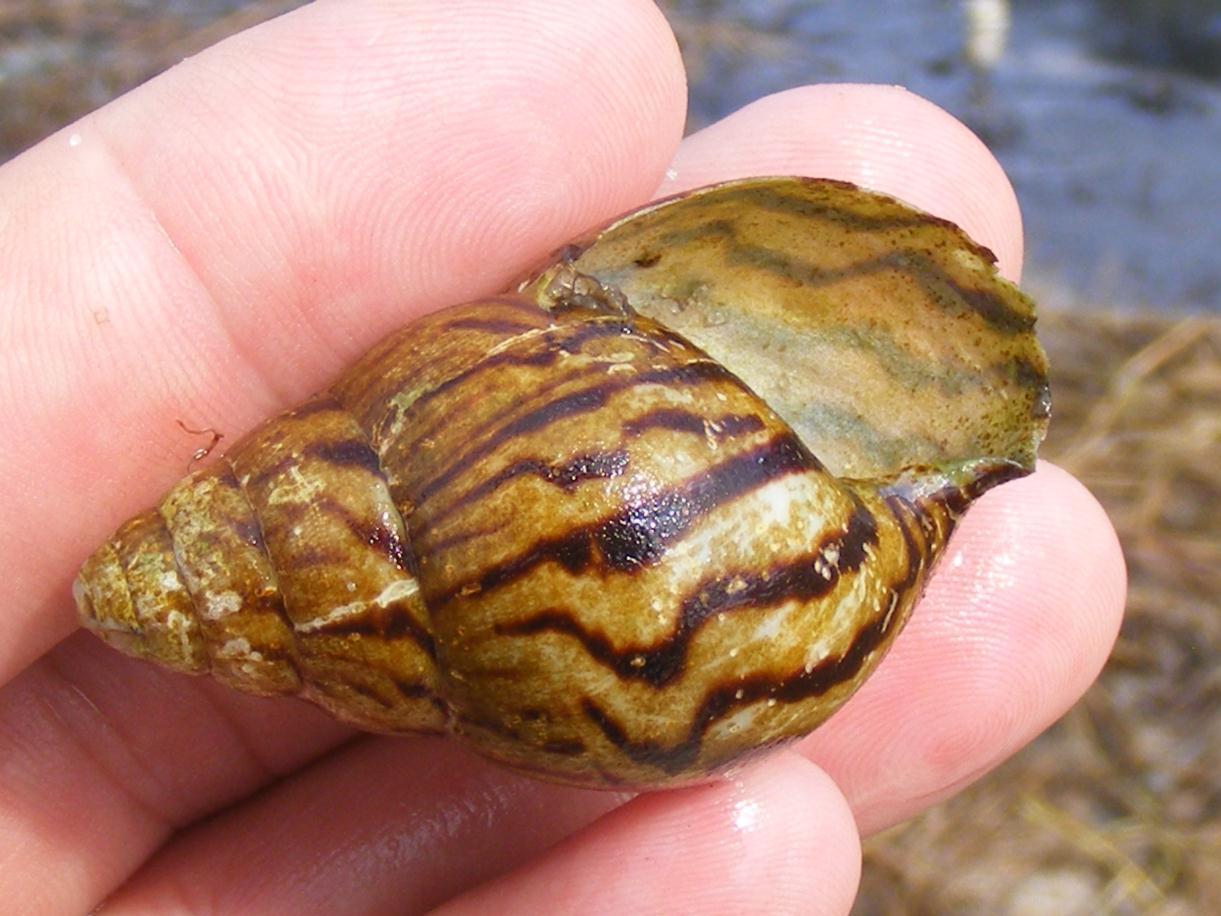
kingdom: Animalia
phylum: Mollusca
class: Gastropoda
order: Stylommatophora
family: Achatinidae
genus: Cochlitoma
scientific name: Cochlitoma churchilliana
